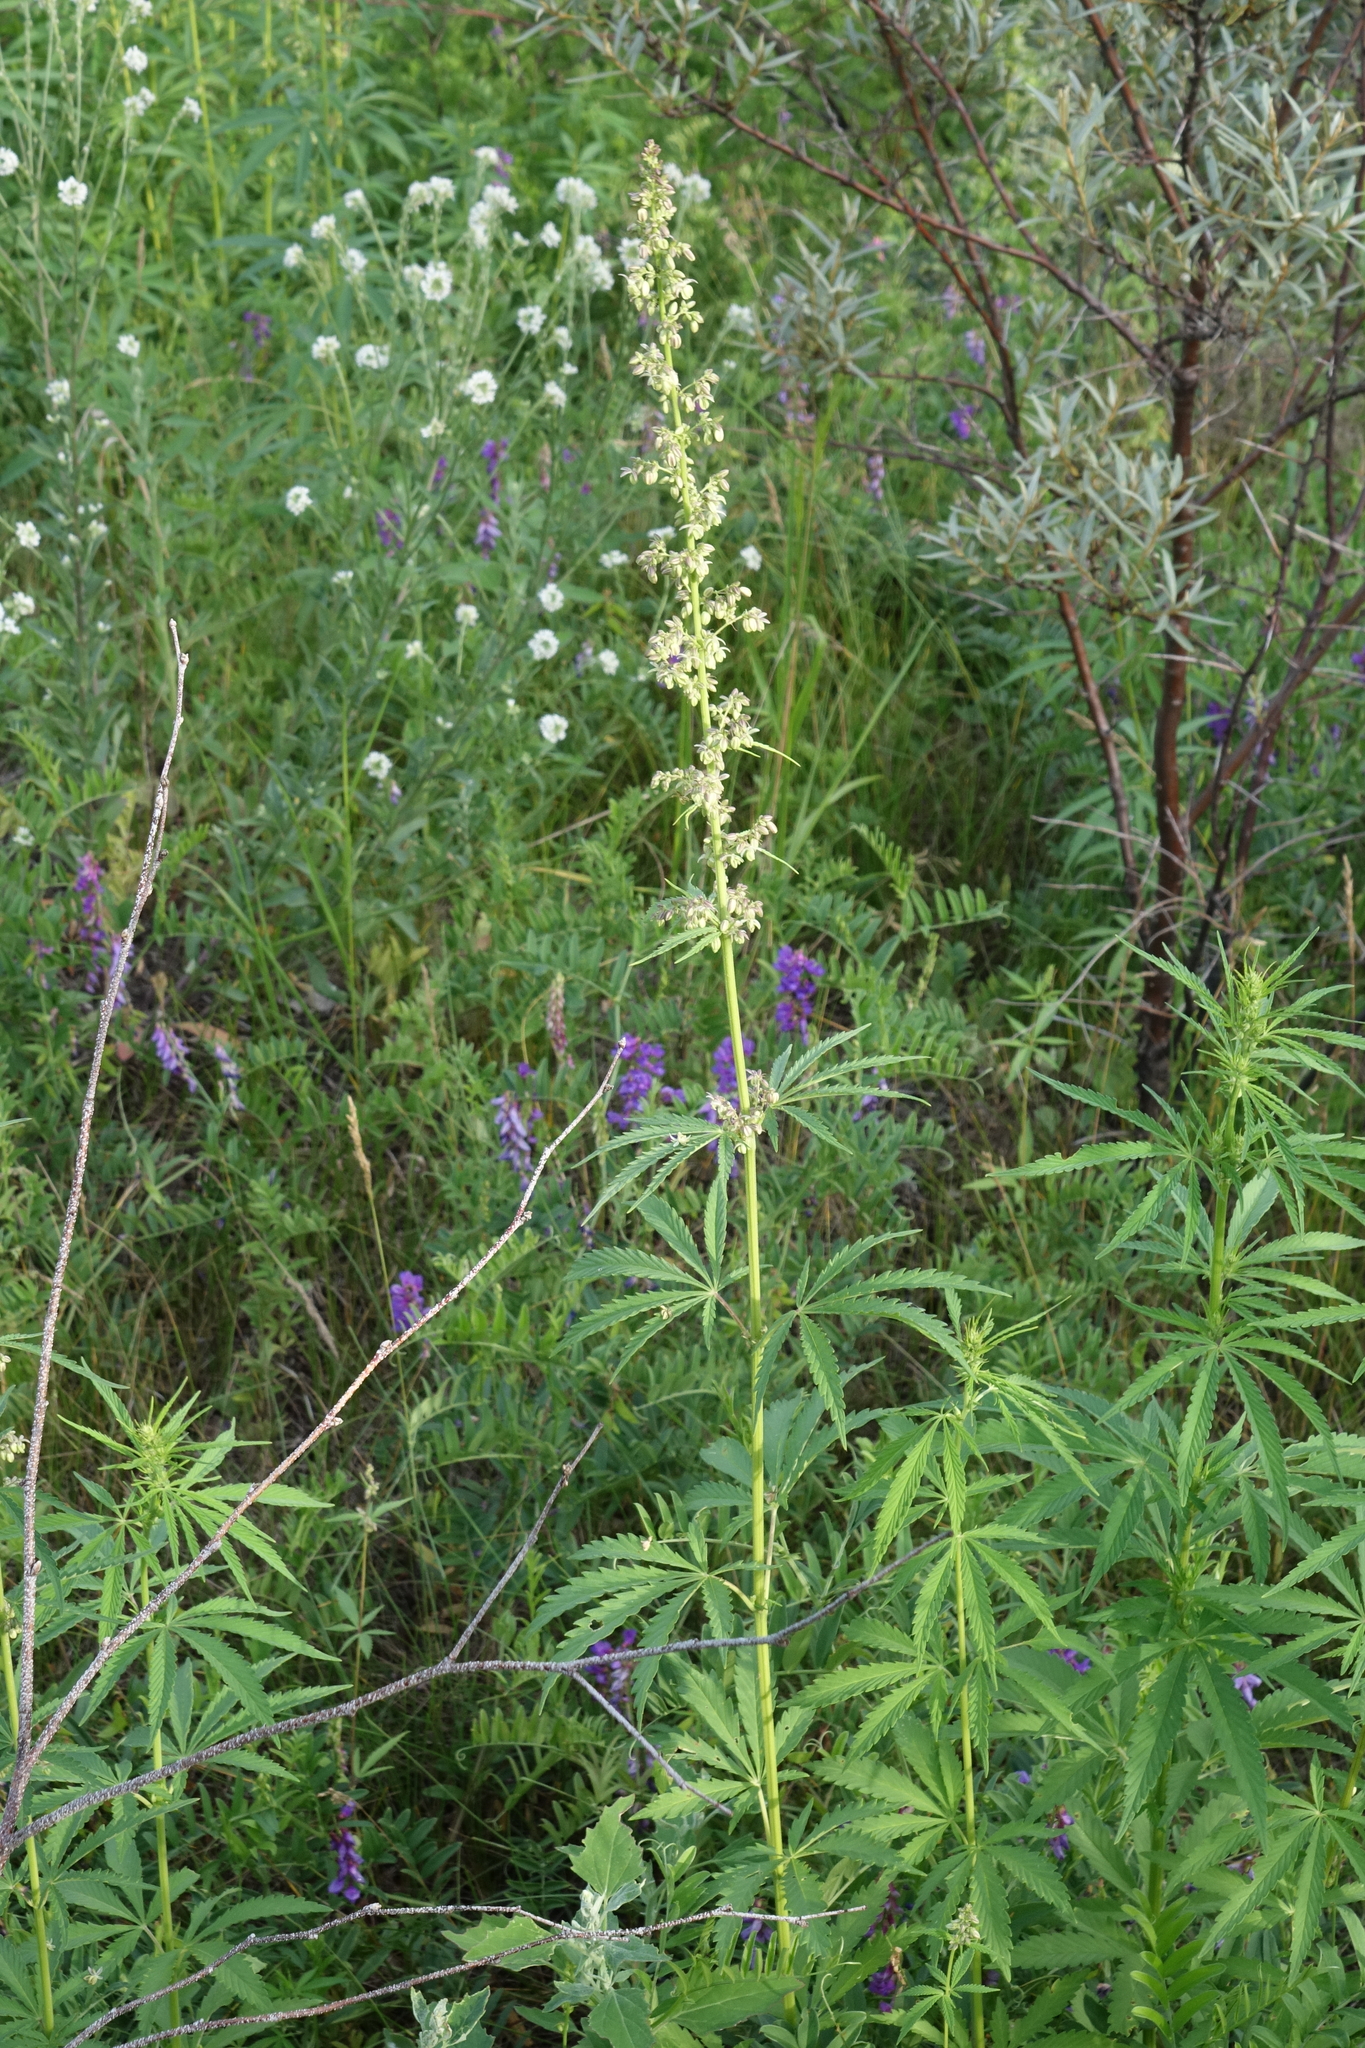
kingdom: Plantae
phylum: Tracheophyta
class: Magnoliopsida
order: Rosales
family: Cannabaceae
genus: Cannabis
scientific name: Cannabis sativa
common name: Hemp
